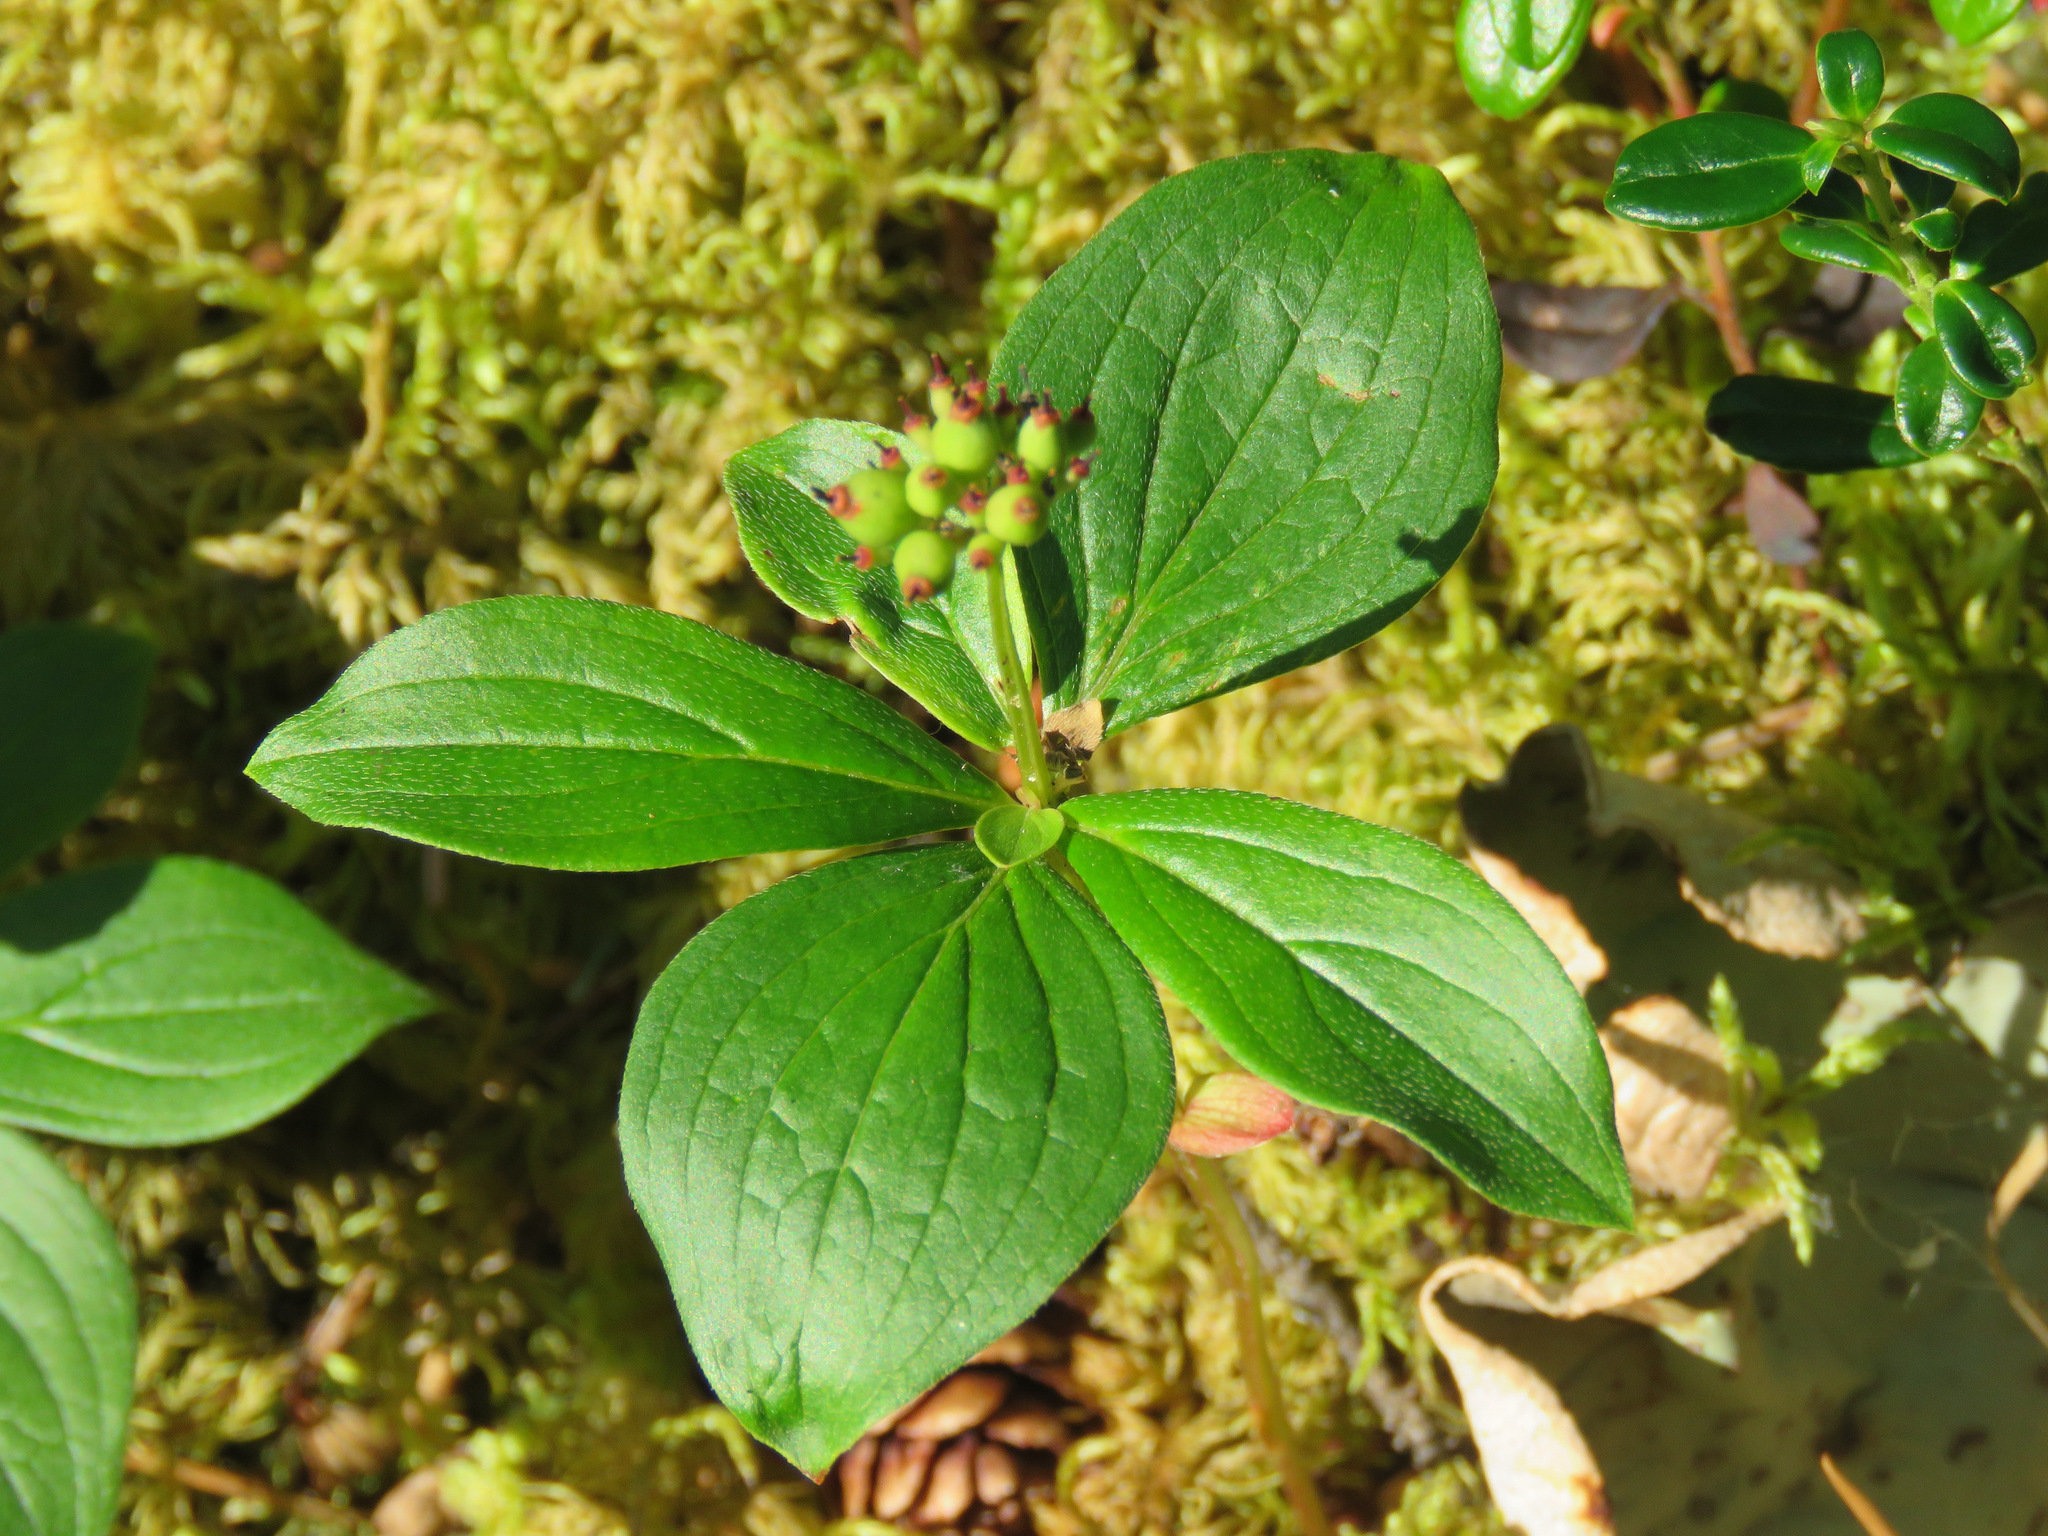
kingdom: Plantae
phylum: Tracheophyta
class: Magnoliopsida
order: Cornales
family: Cornaceae
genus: Cornus
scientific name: Cornus canadensis
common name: Creeping dogwood
